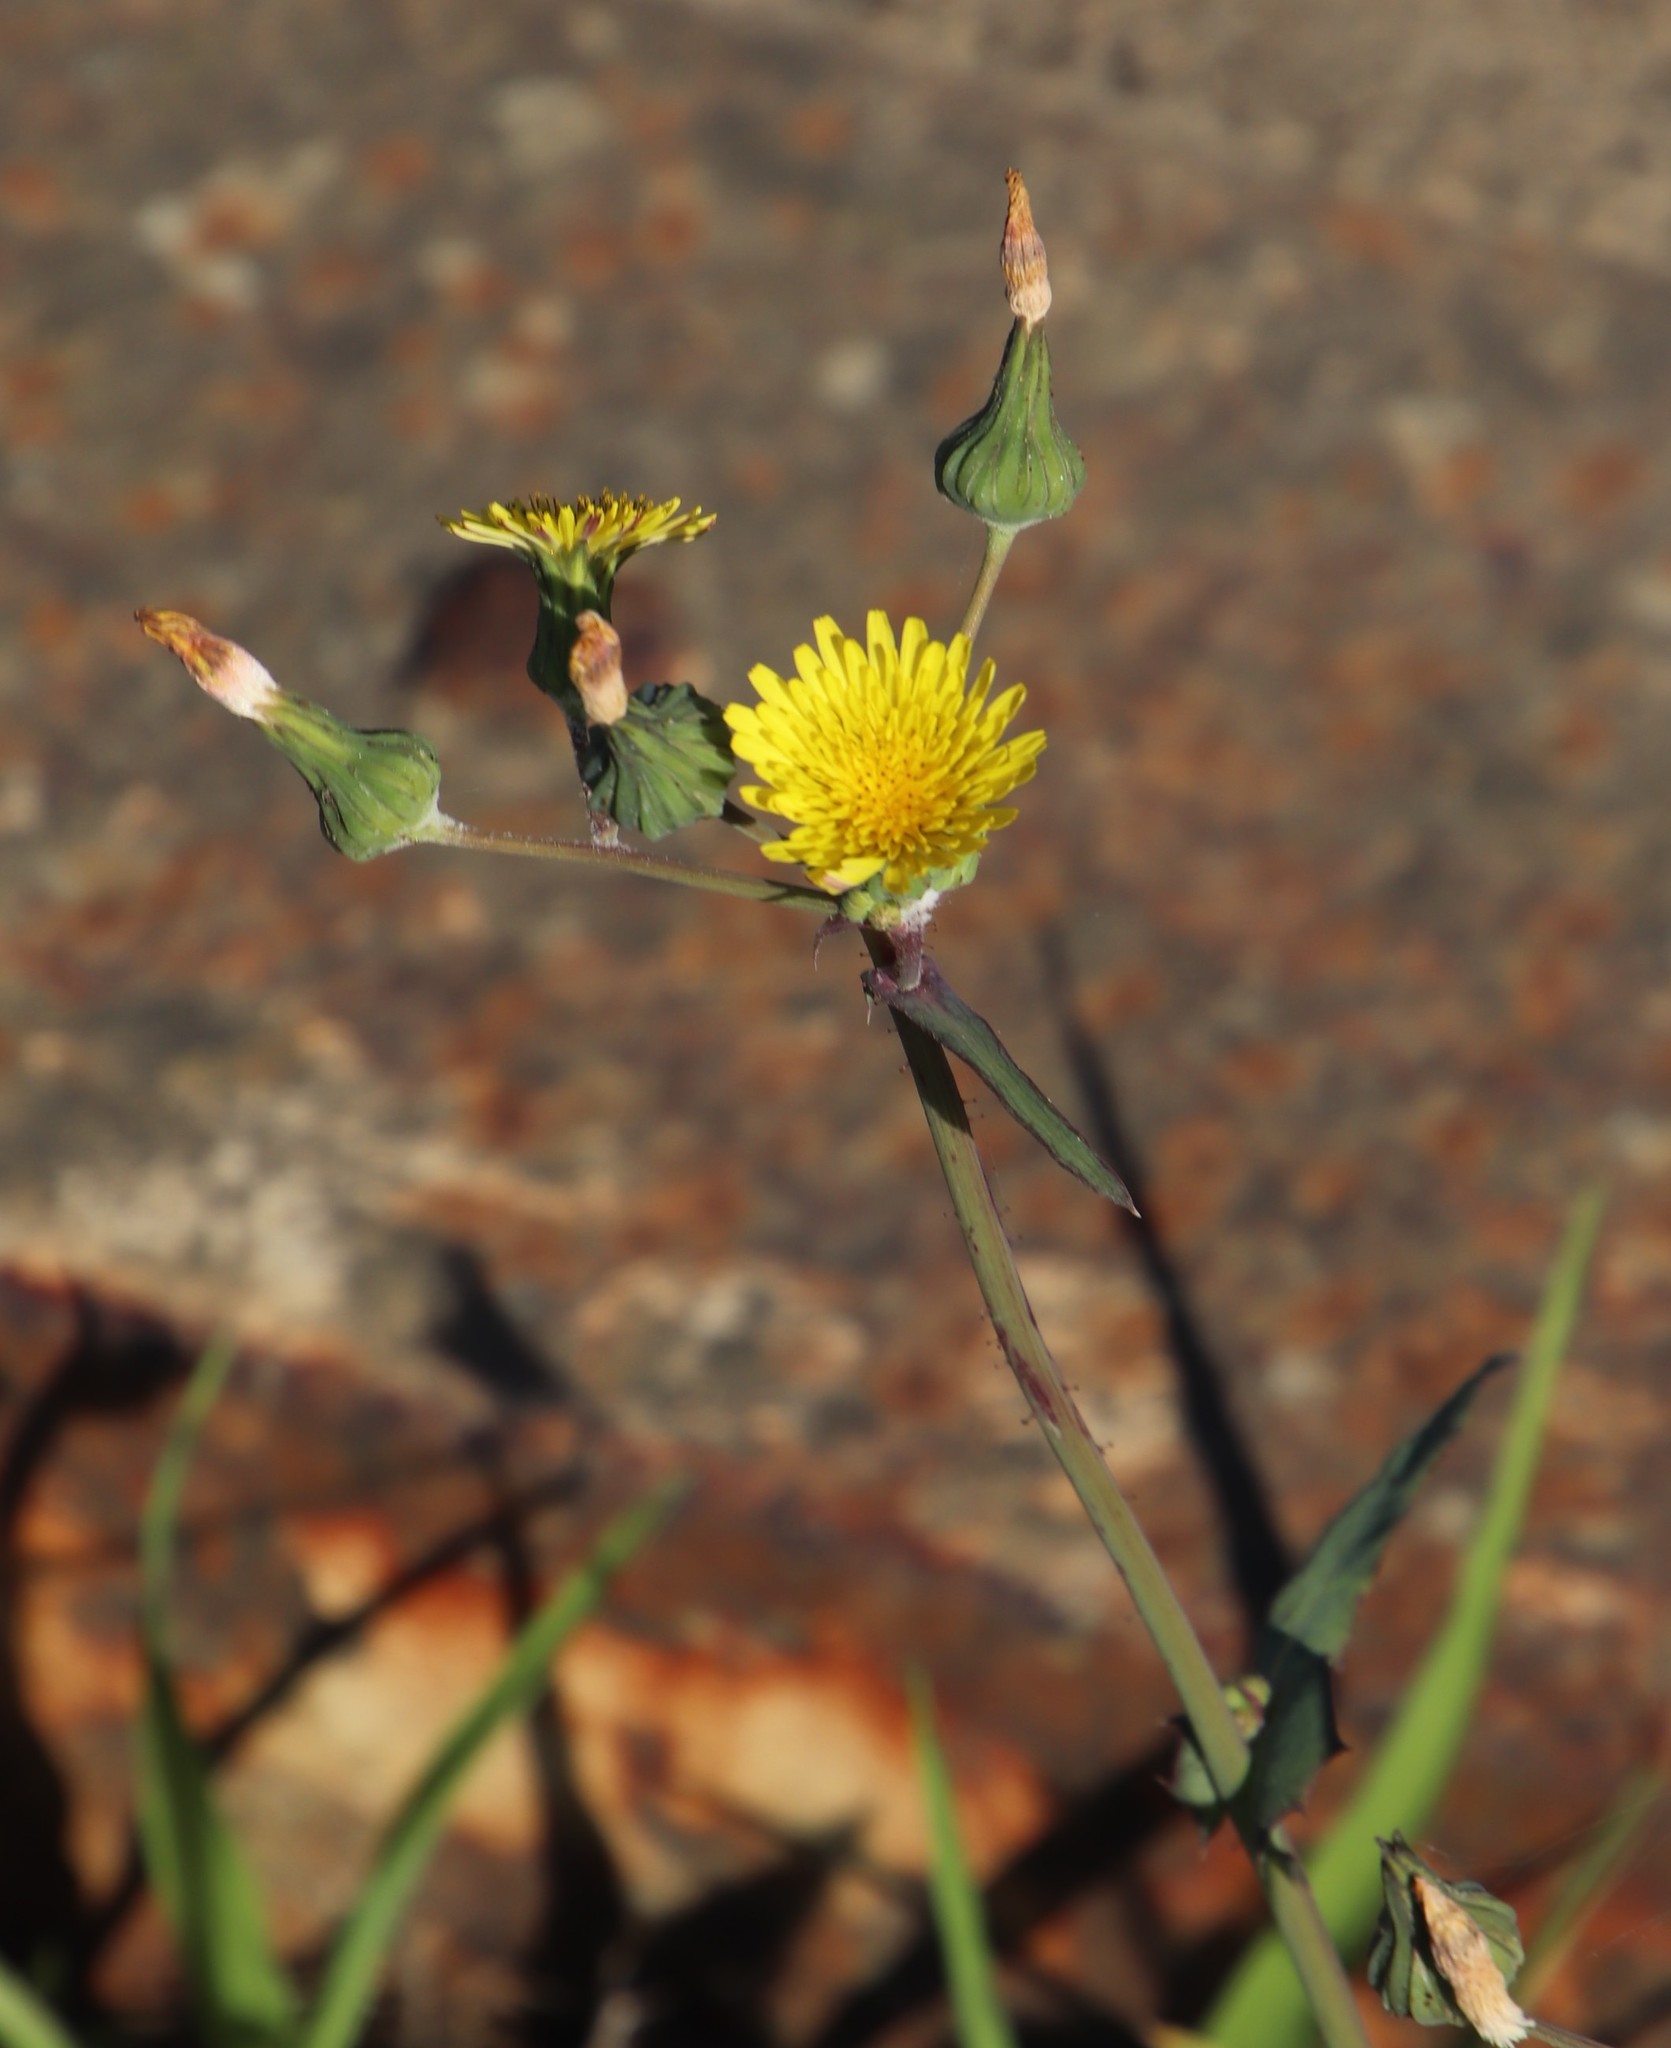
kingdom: Plantae
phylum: Tracheophyta
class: Magnoliopsida
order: Asterales
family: Asteraceae
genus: Sonchus
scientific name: Sonchus oleraceus
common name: Common sowthistle
